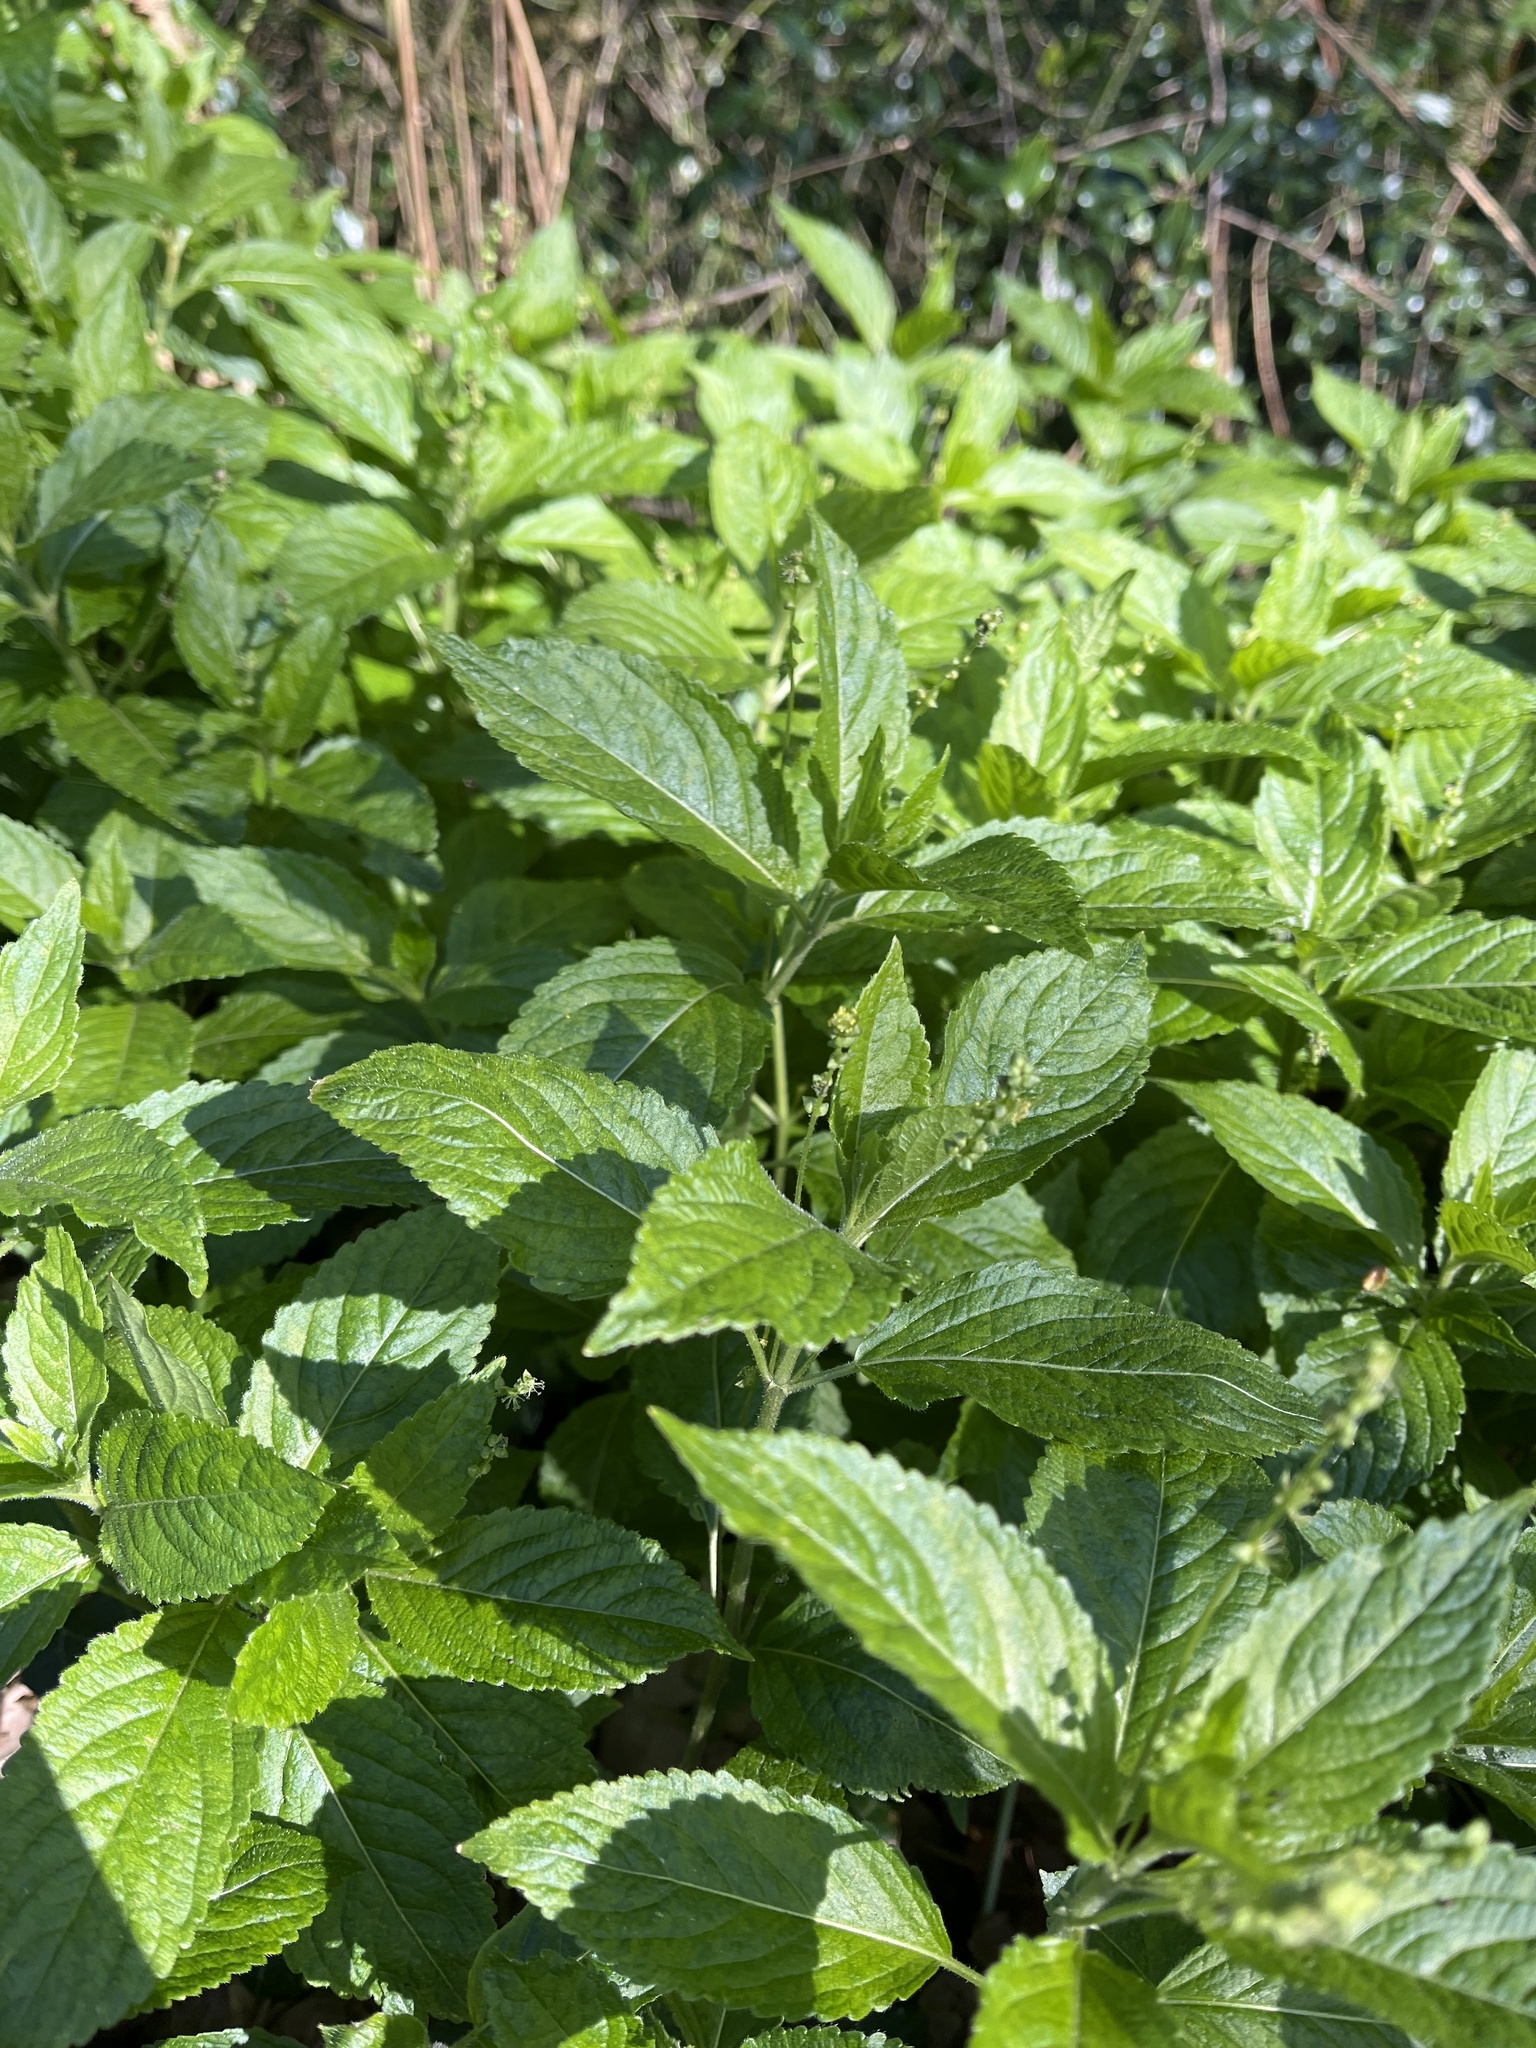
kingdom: Plantae
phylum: Tracheophyta
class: Magnoliopsida
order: Malpighiales
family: Euphorbiaceae
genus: Mercurialis
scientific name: Mercurialis perennis
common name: Dog mercury
